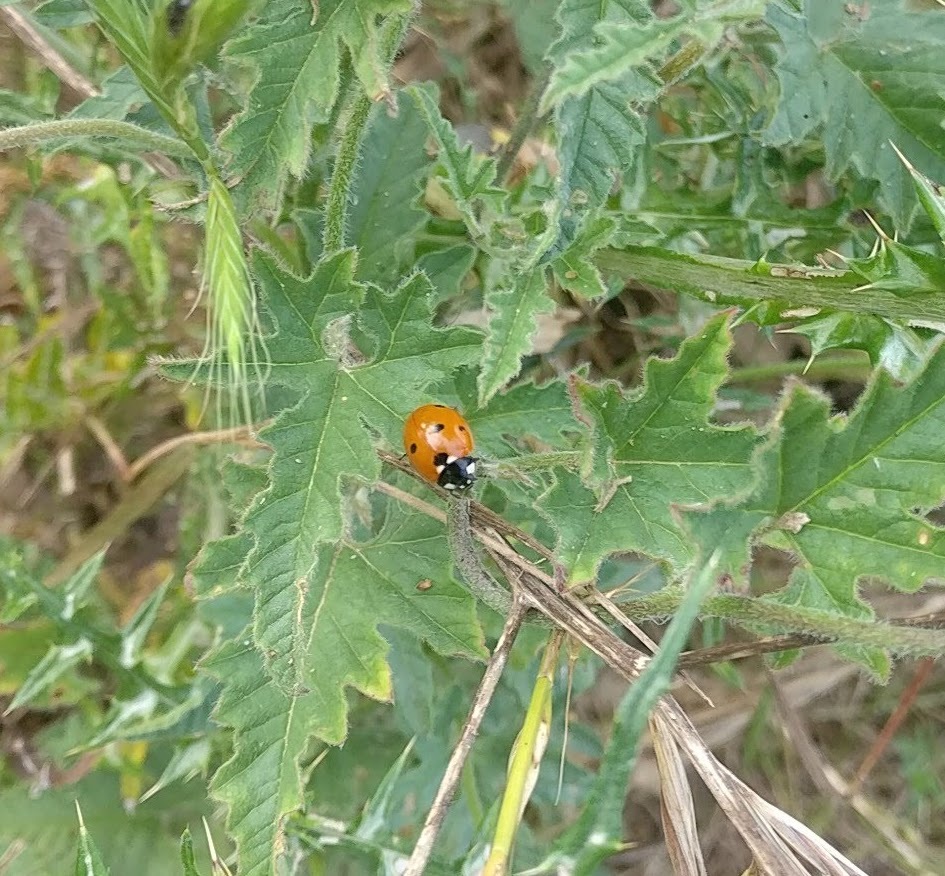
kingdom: Animalia
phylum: Arthropoda
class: Insecta
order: Coleoptera
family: Coccinellidae
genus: Coccinella
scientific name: Coccinella septempunctata
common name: Sevenspotted lady beetle
